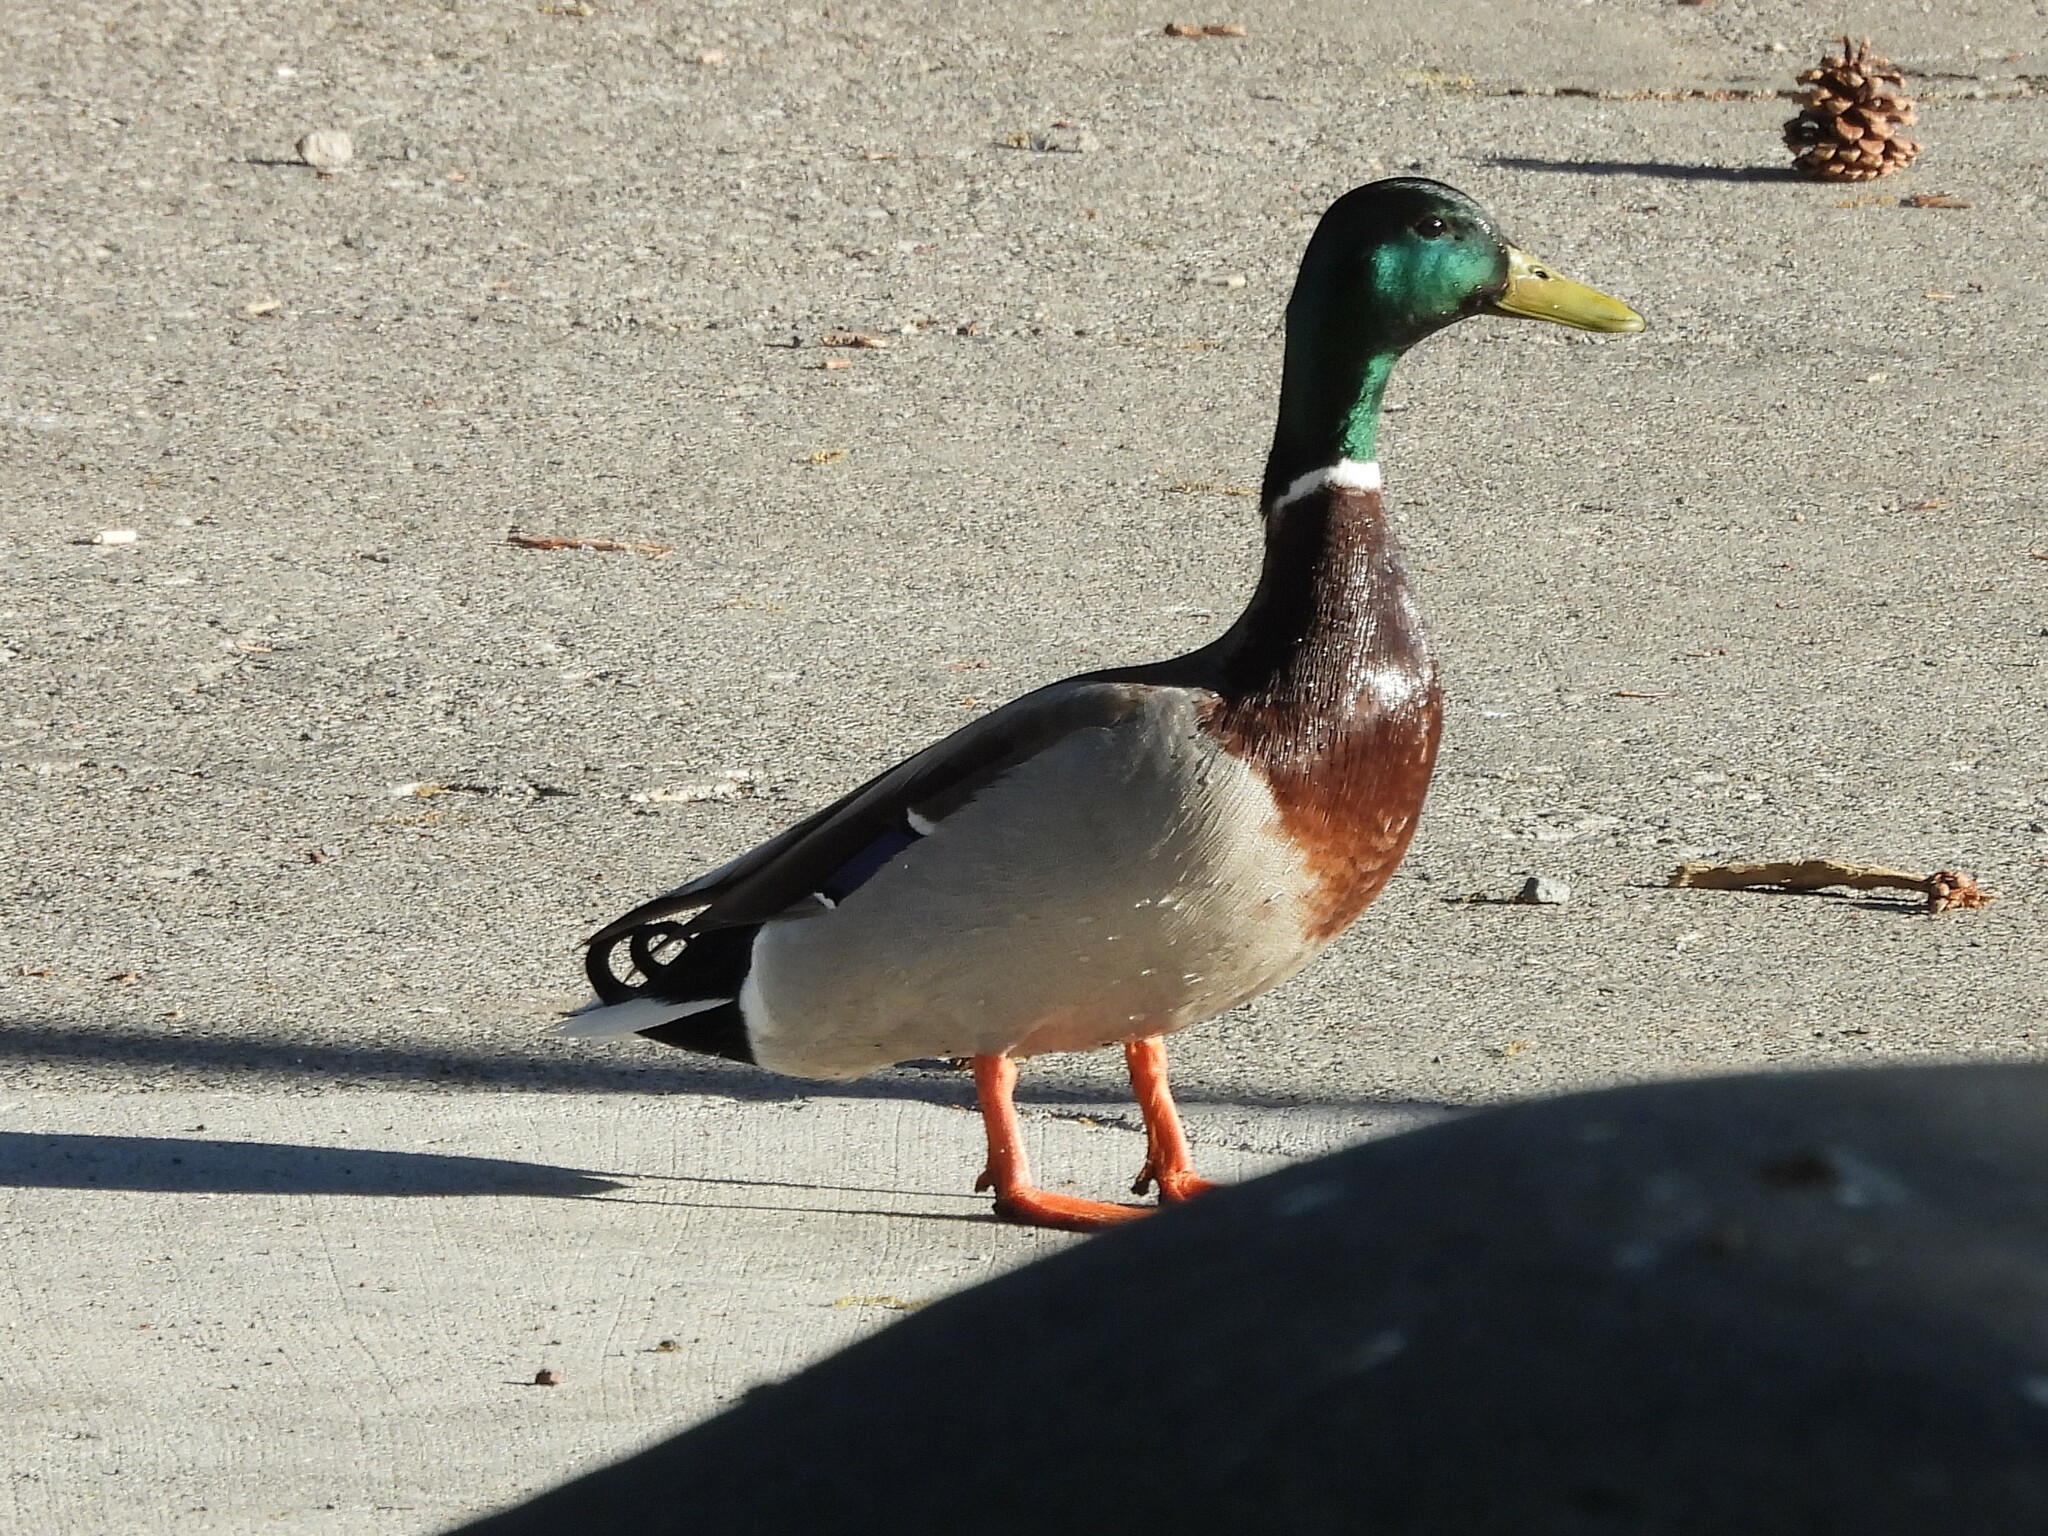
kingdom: Animalia
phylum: Chordata
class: Aves
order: Anseriformes
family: Anatidae
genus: Anas
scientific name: Anas platyrhynchos
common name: Mallard
